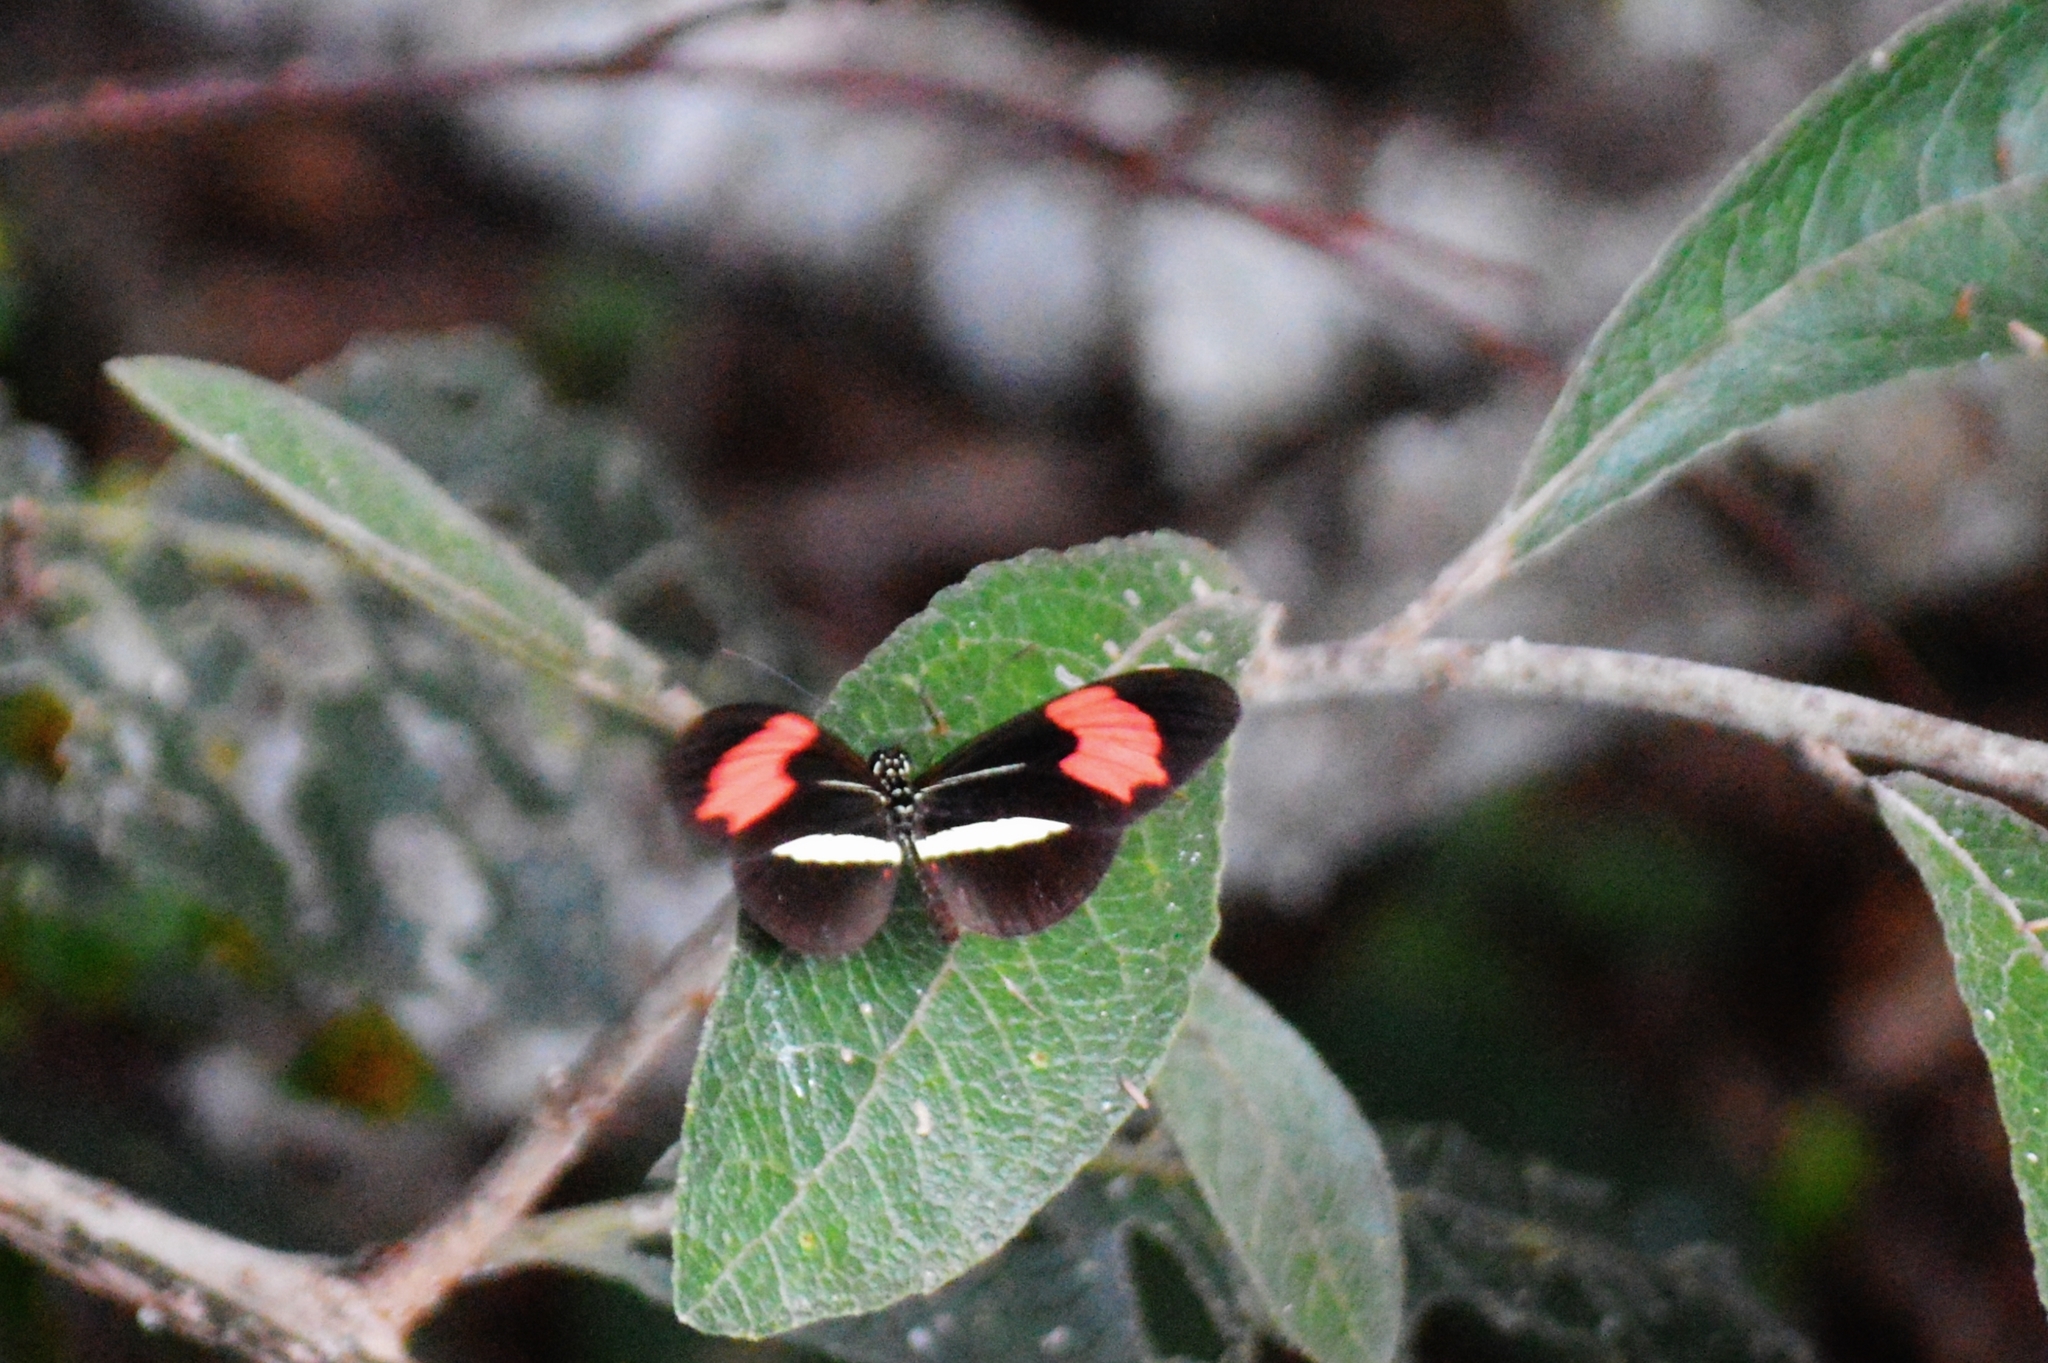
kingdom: Animalia
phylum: Arthropoda
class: Insecta
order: Lepidoptera
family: Nymphalidae
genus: Heliconius
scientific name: Heliconius erato
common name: Common patch longwing
